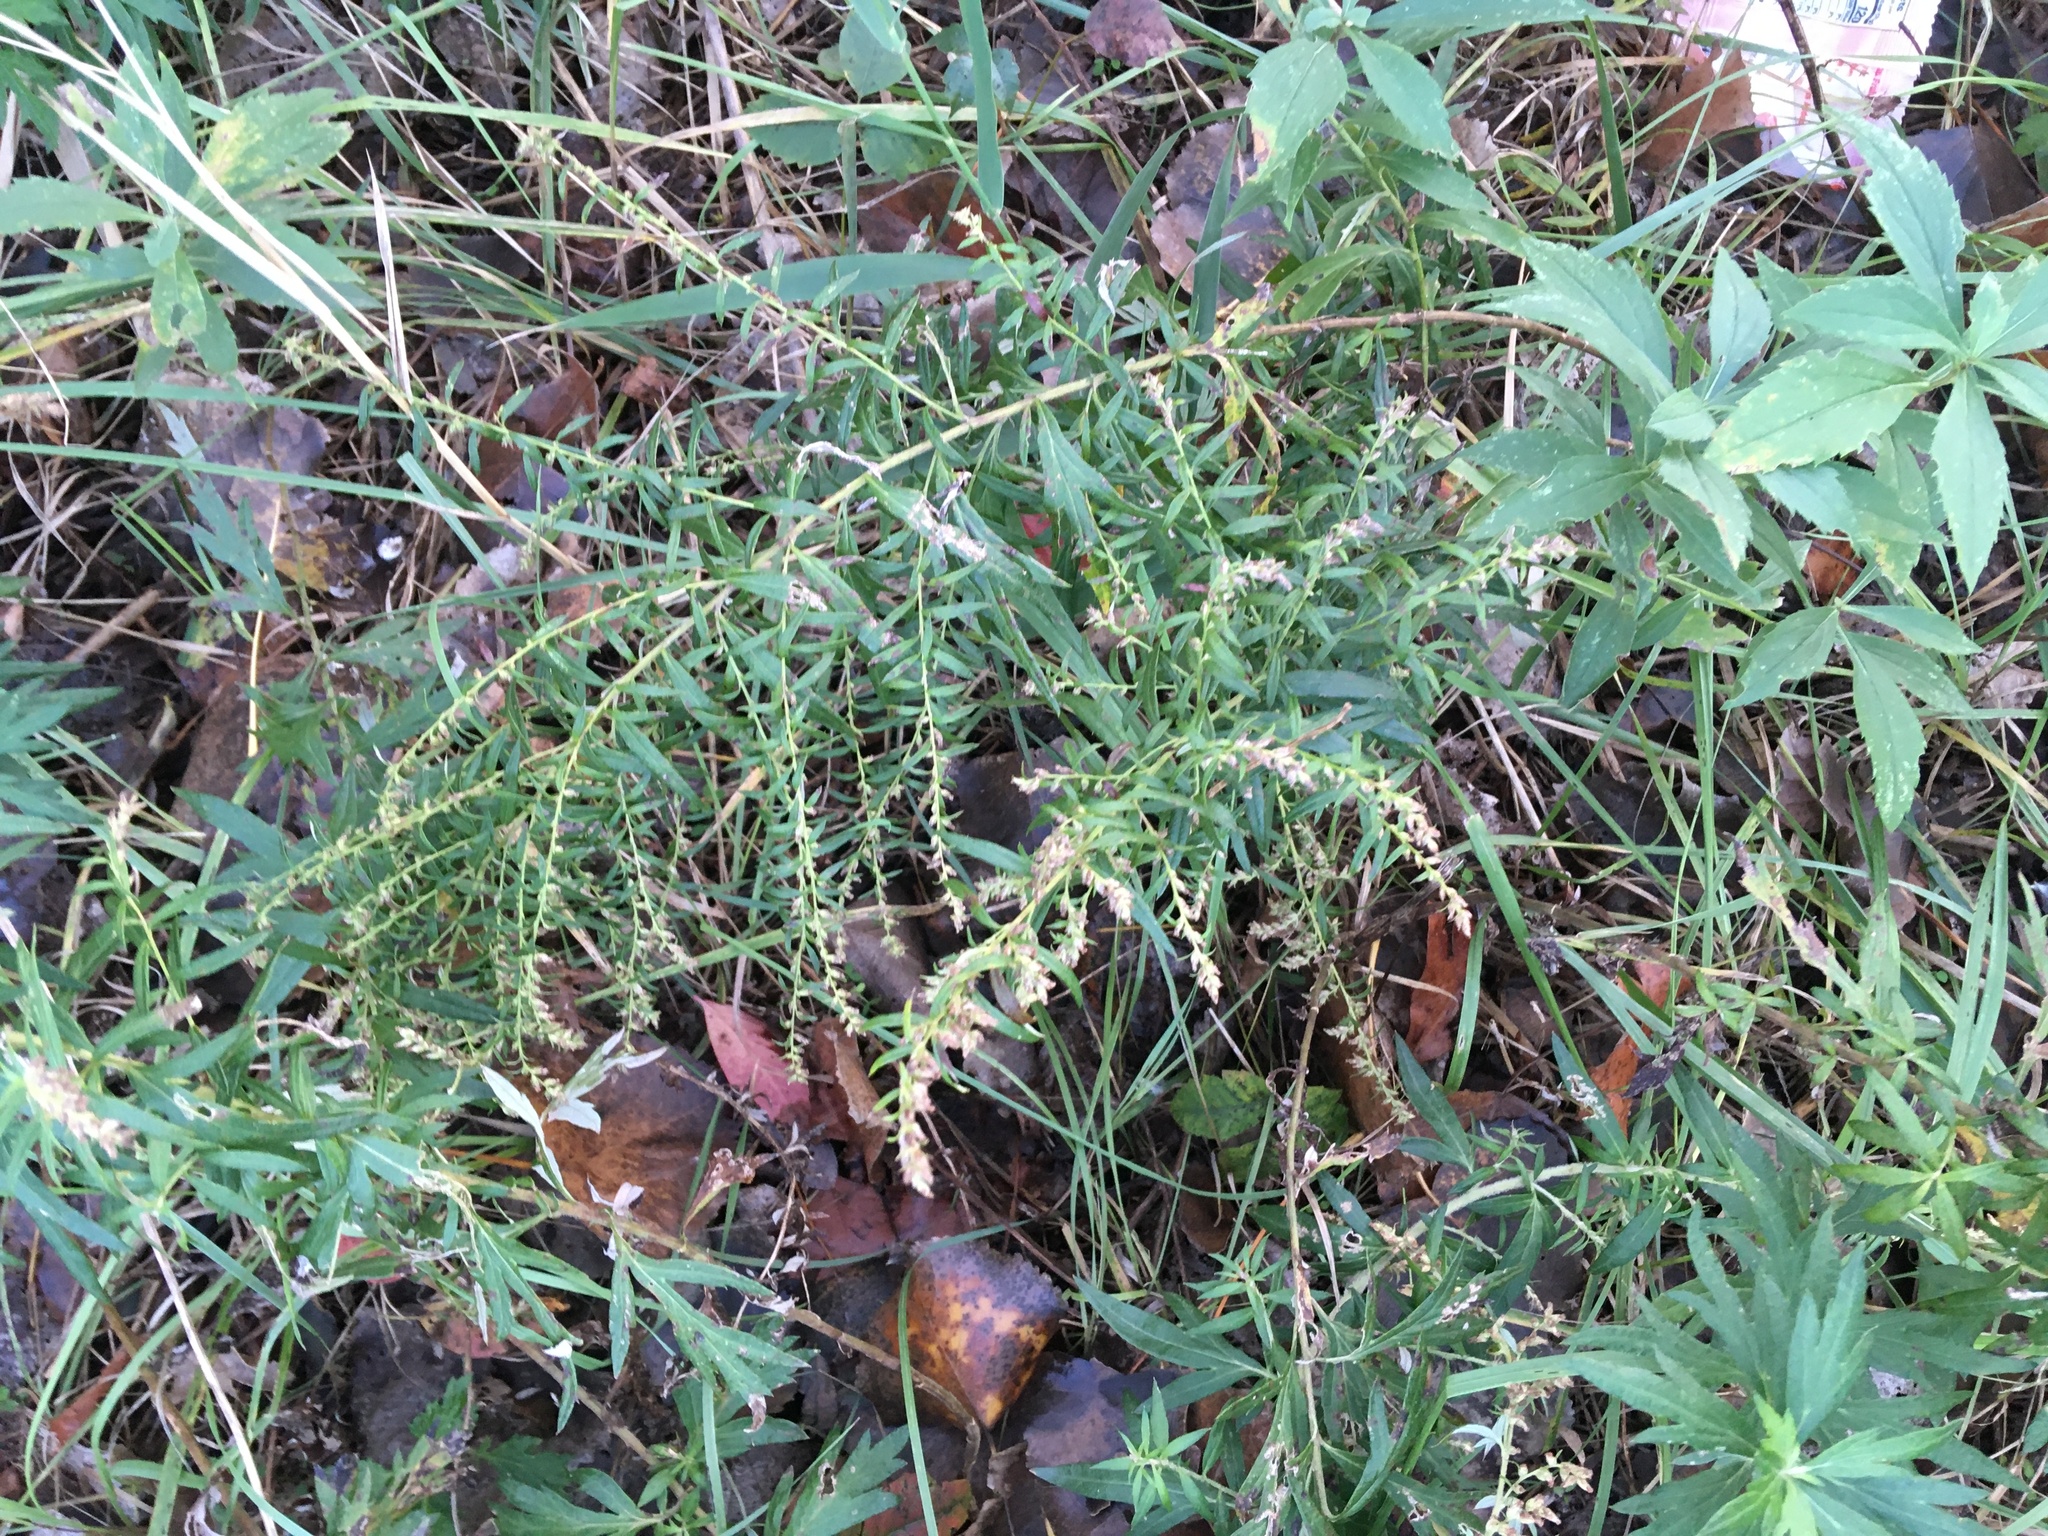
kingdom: Plantae
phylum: Tracheophyta
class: Magnoliopsida
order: Asterales
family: Asteraceae
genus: Artemisia
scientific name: Artemisia vulgaris
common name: Mugwort
